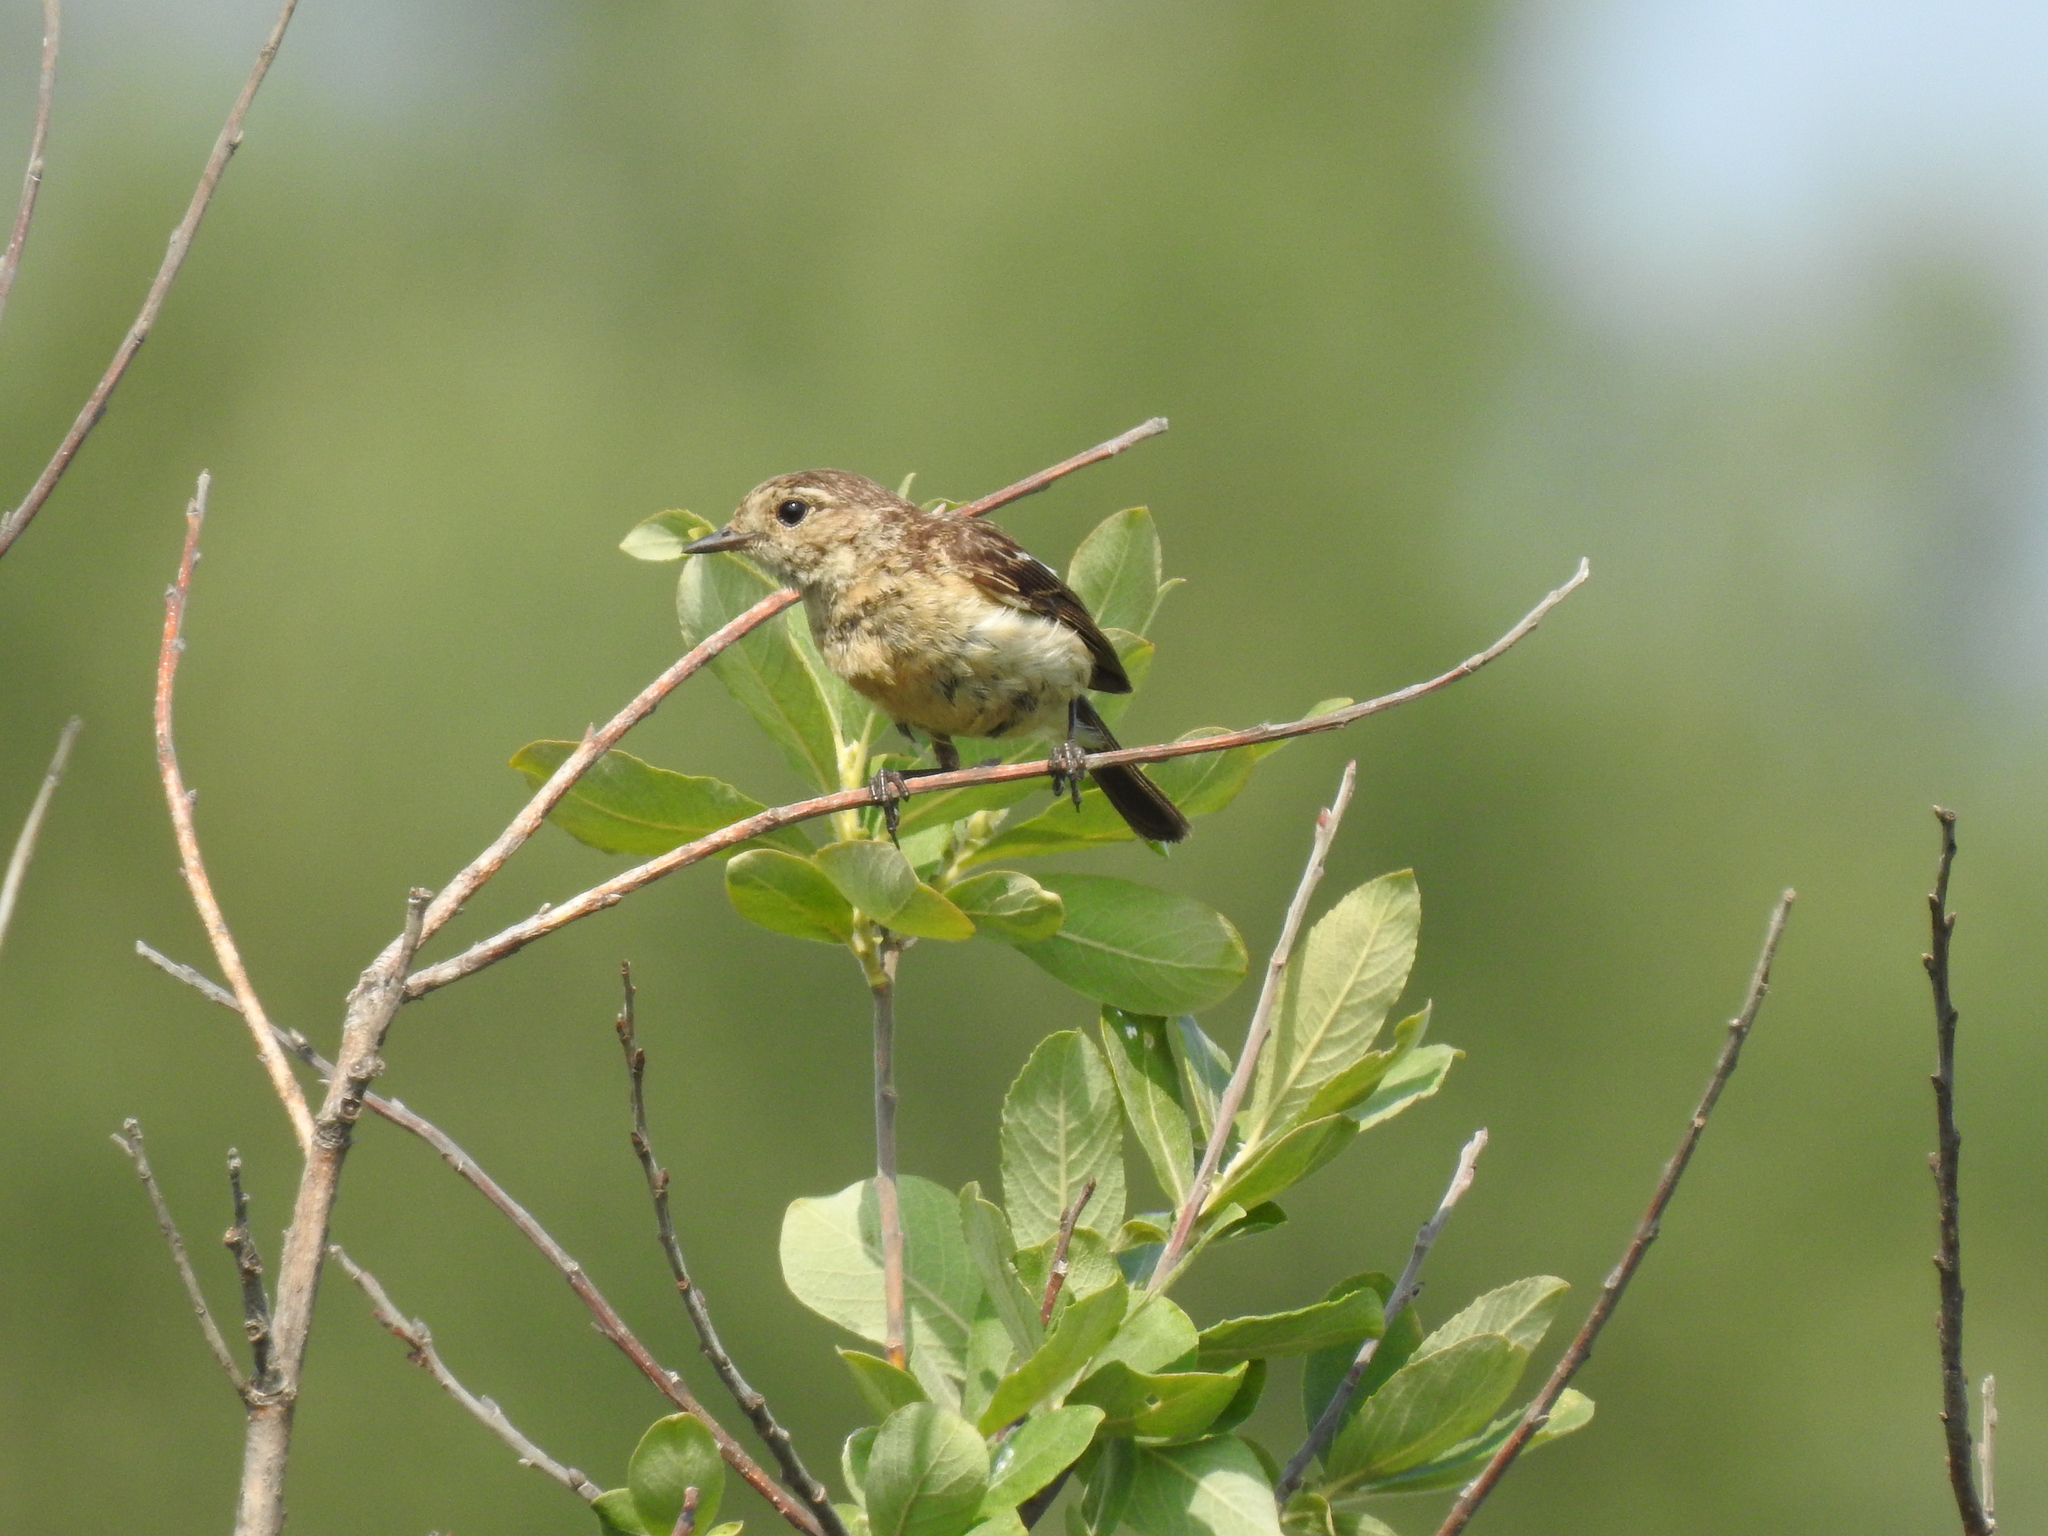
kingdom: Animalia
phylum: Chordata
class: Aves
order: Passeriformes
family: Muscicapidae
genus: Saxicola
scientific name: Saxicola maurus
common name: Siberian stonechat
